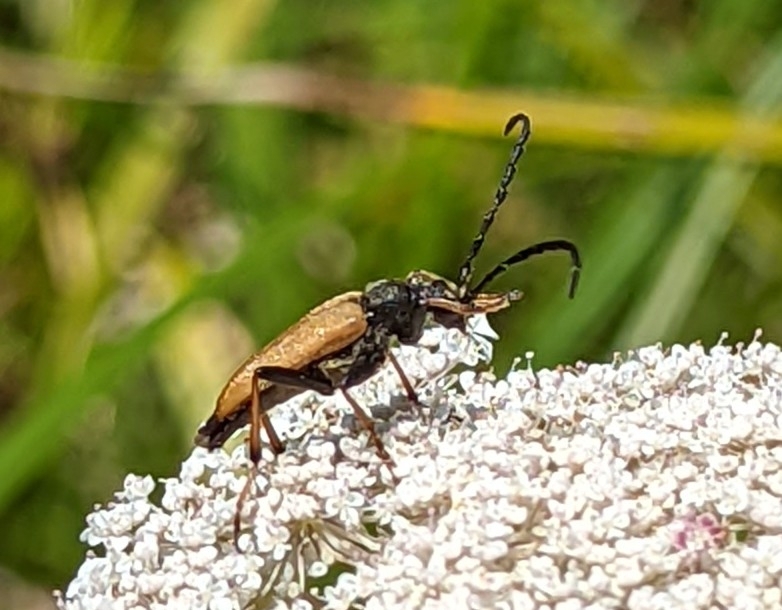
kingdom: Animalia
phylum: Arthropoda
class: Insecta
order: Coleoptera
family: Cerambycidae
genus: Stictoleptura
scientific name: Stictoleptura rubra
